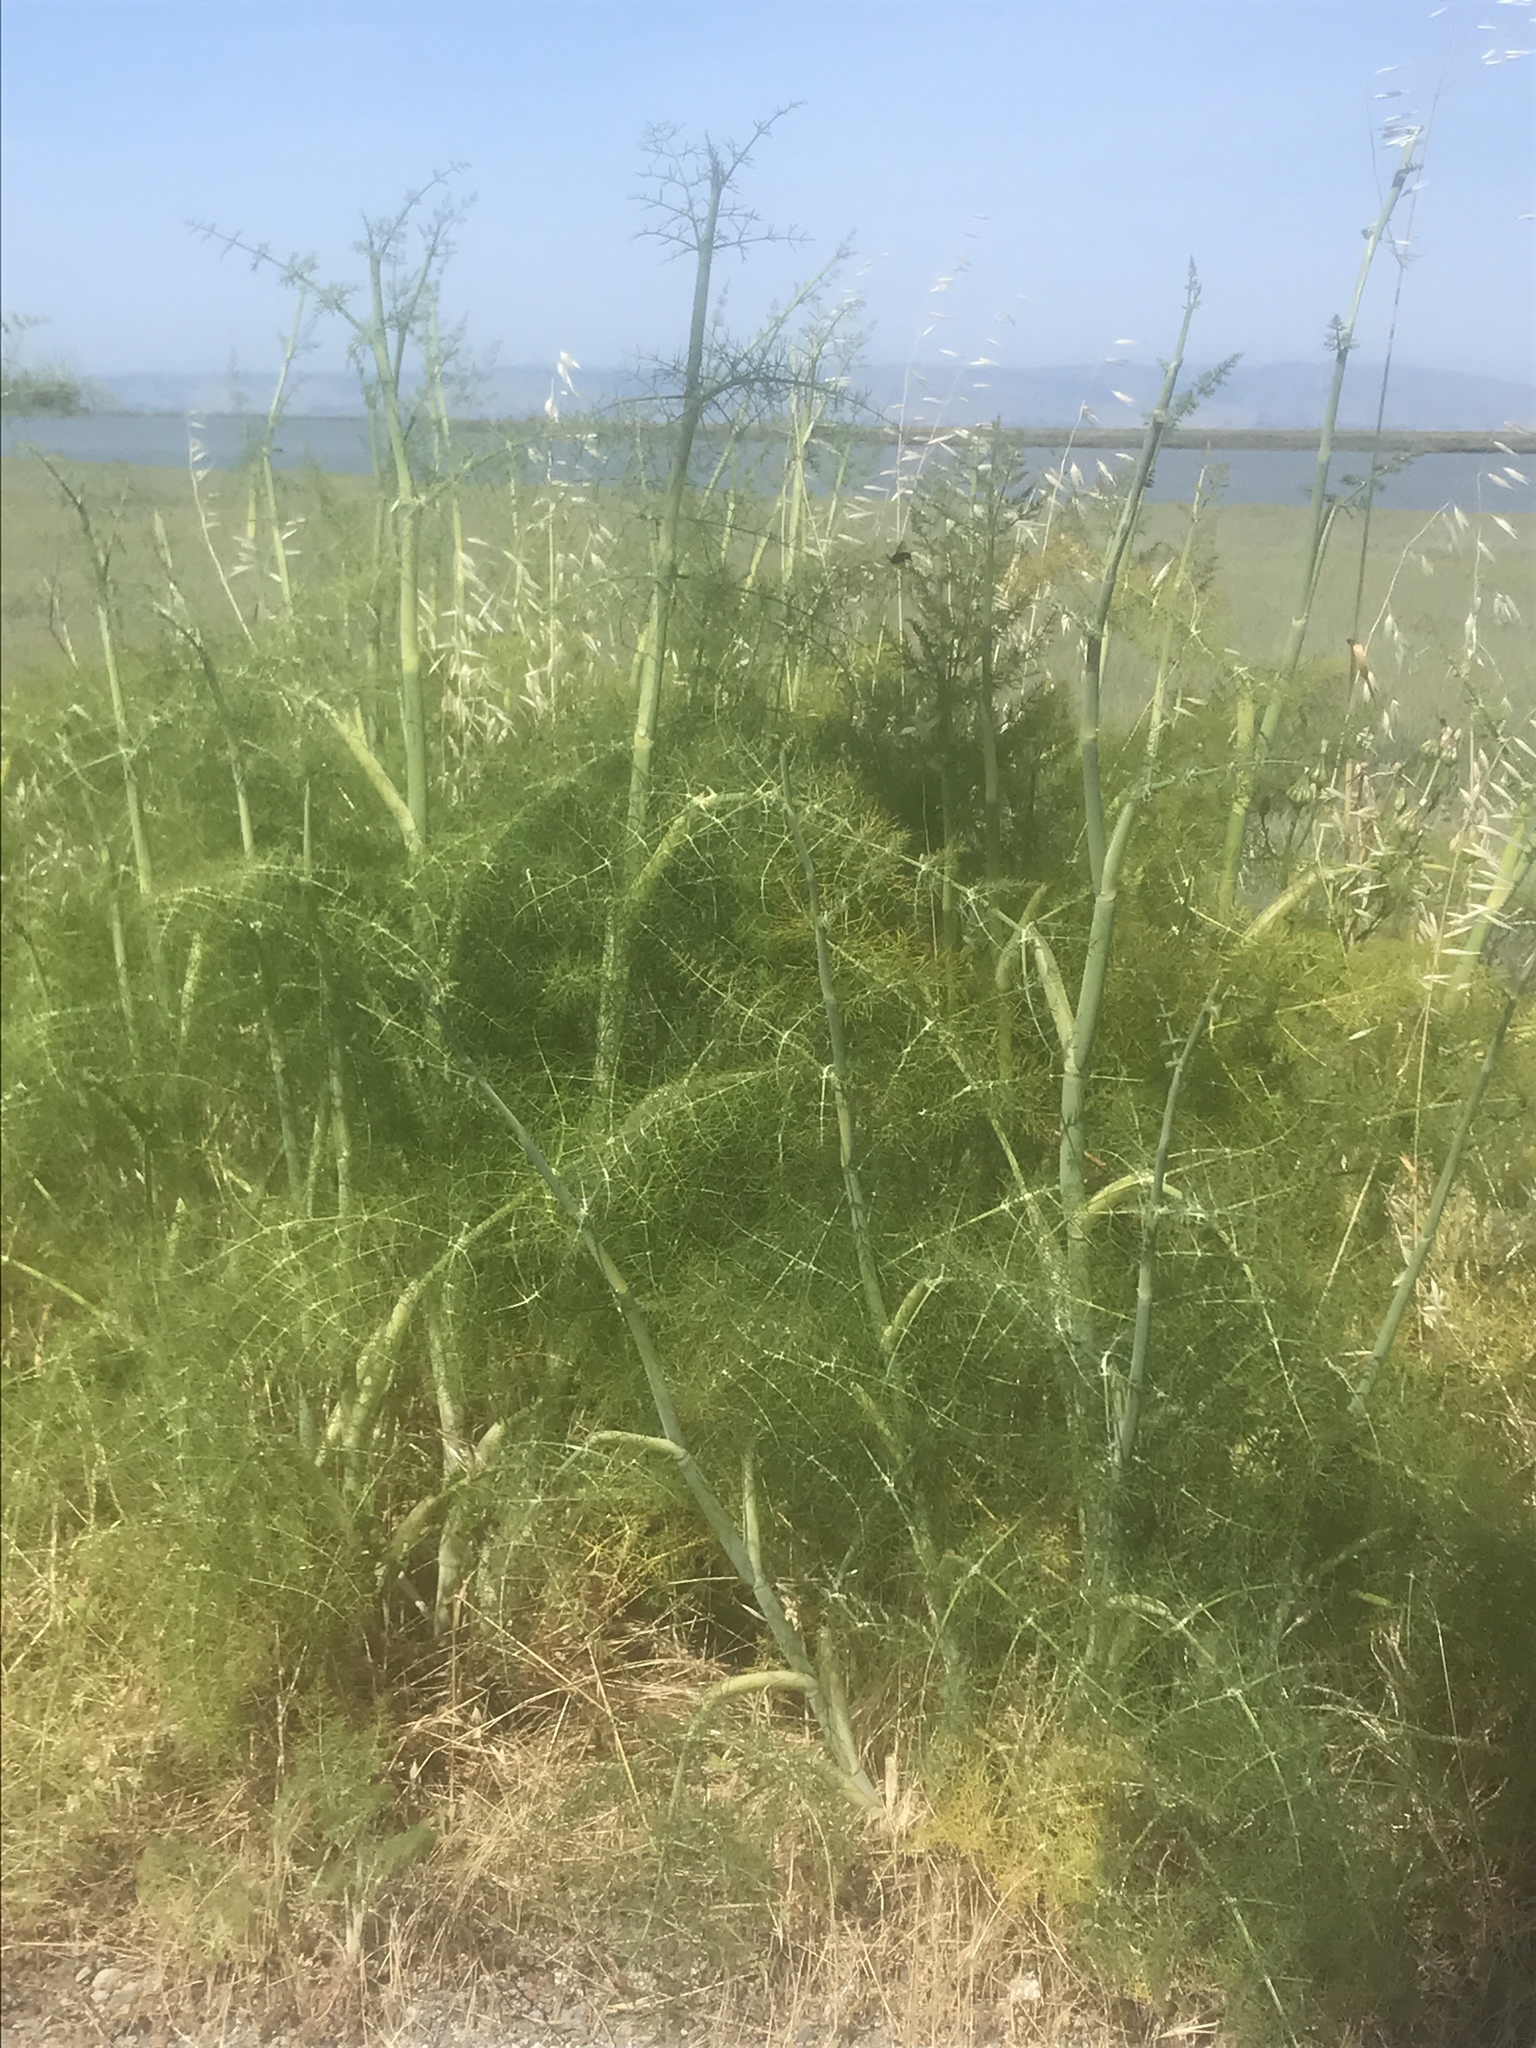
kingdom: Plantae
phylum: Tracheophyta
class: Magnoliopsida
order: Apiales
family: Apiaceae
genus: Foeniculum
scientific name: Foeniculum vulgare
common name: Fennel
